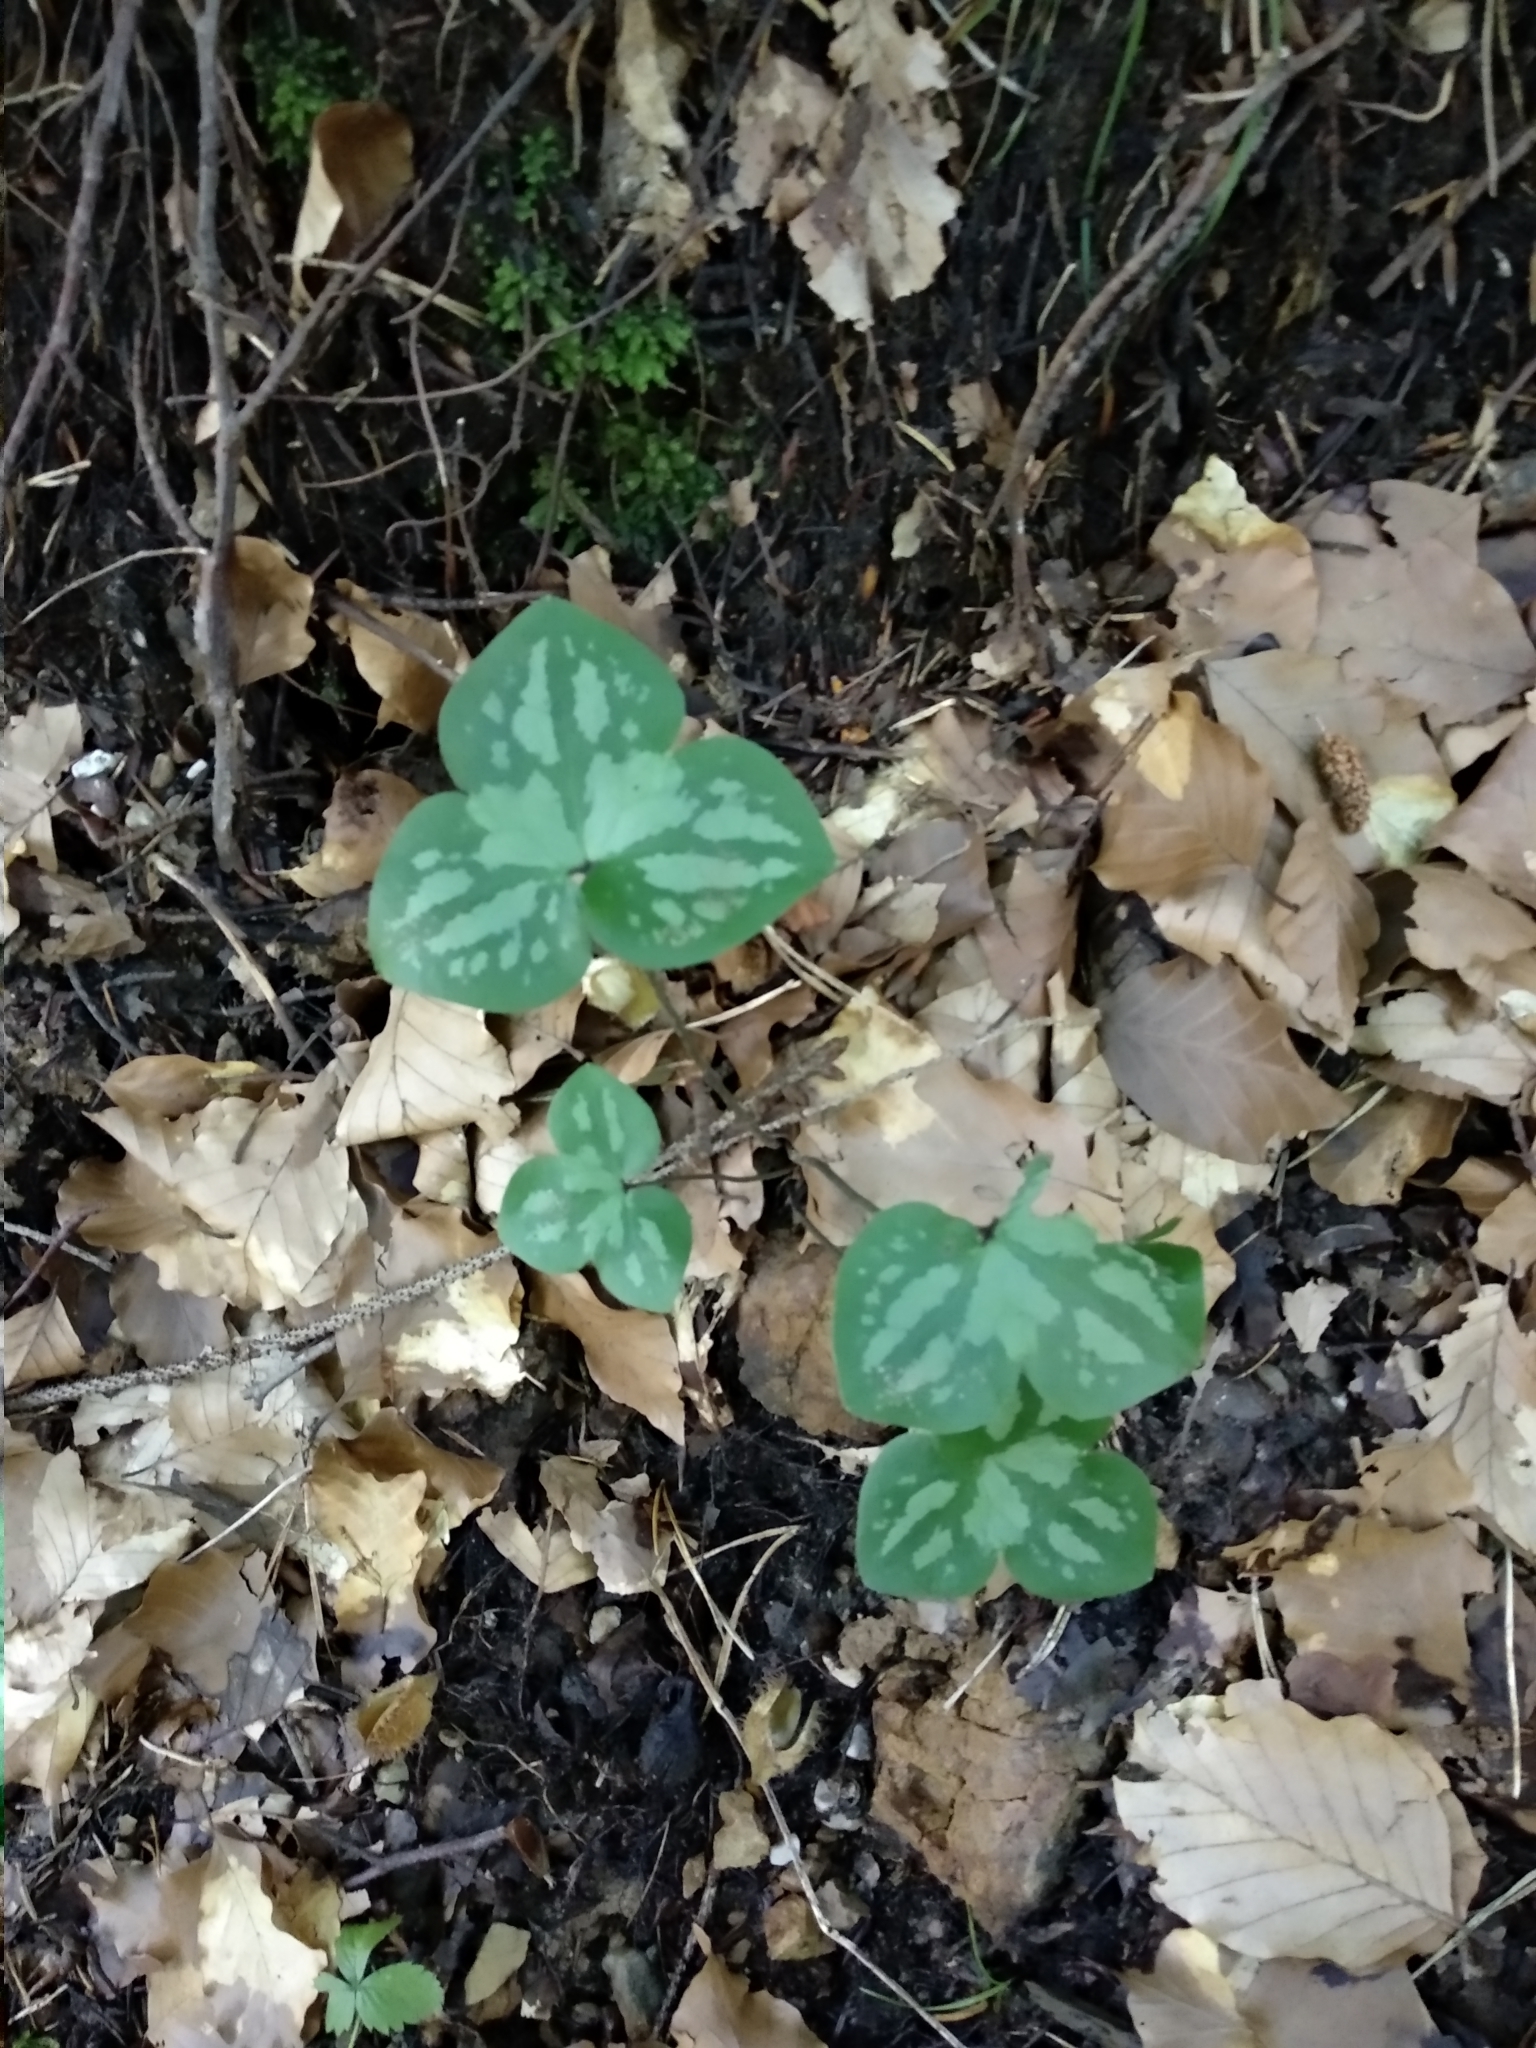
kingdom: Plantae
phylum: Tracheophyta
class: Magnoliopsida
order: Ranunculales
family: Ranunculaceae
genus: Hepatica
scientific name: Hepatica nobilis
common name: Liverleaf
